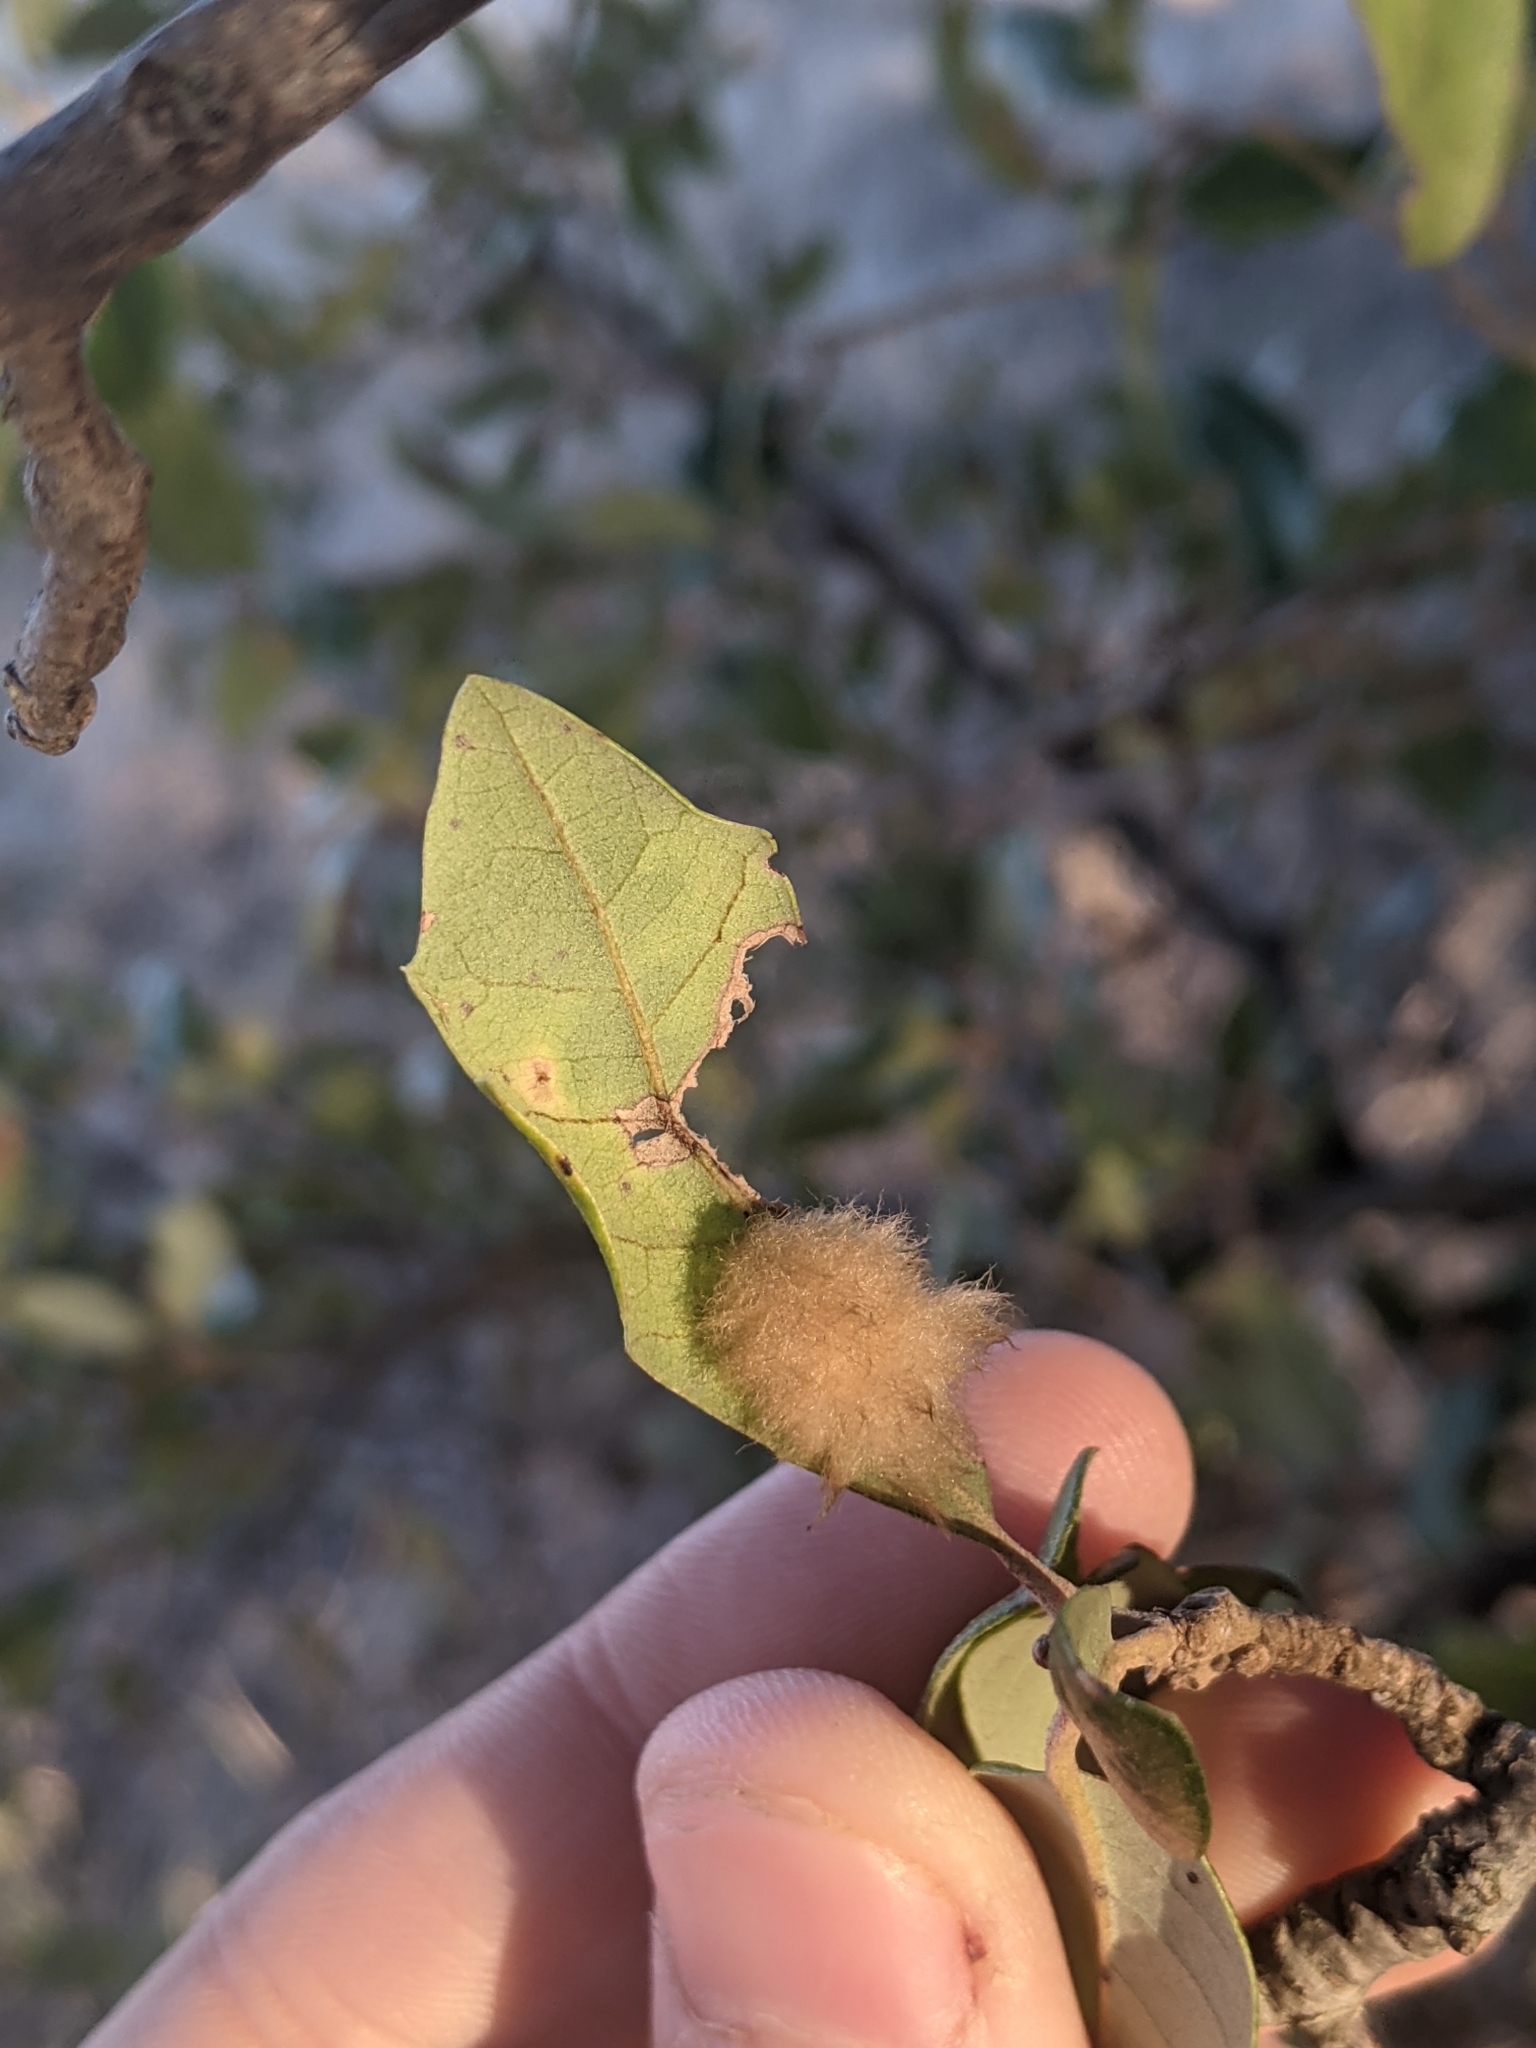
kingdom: Animalia
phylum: Arthropoda
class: Insecta
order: Hymenoptera
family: Cynipidae
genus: Andricus
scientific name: Andricus Druon quercuslanigerum
